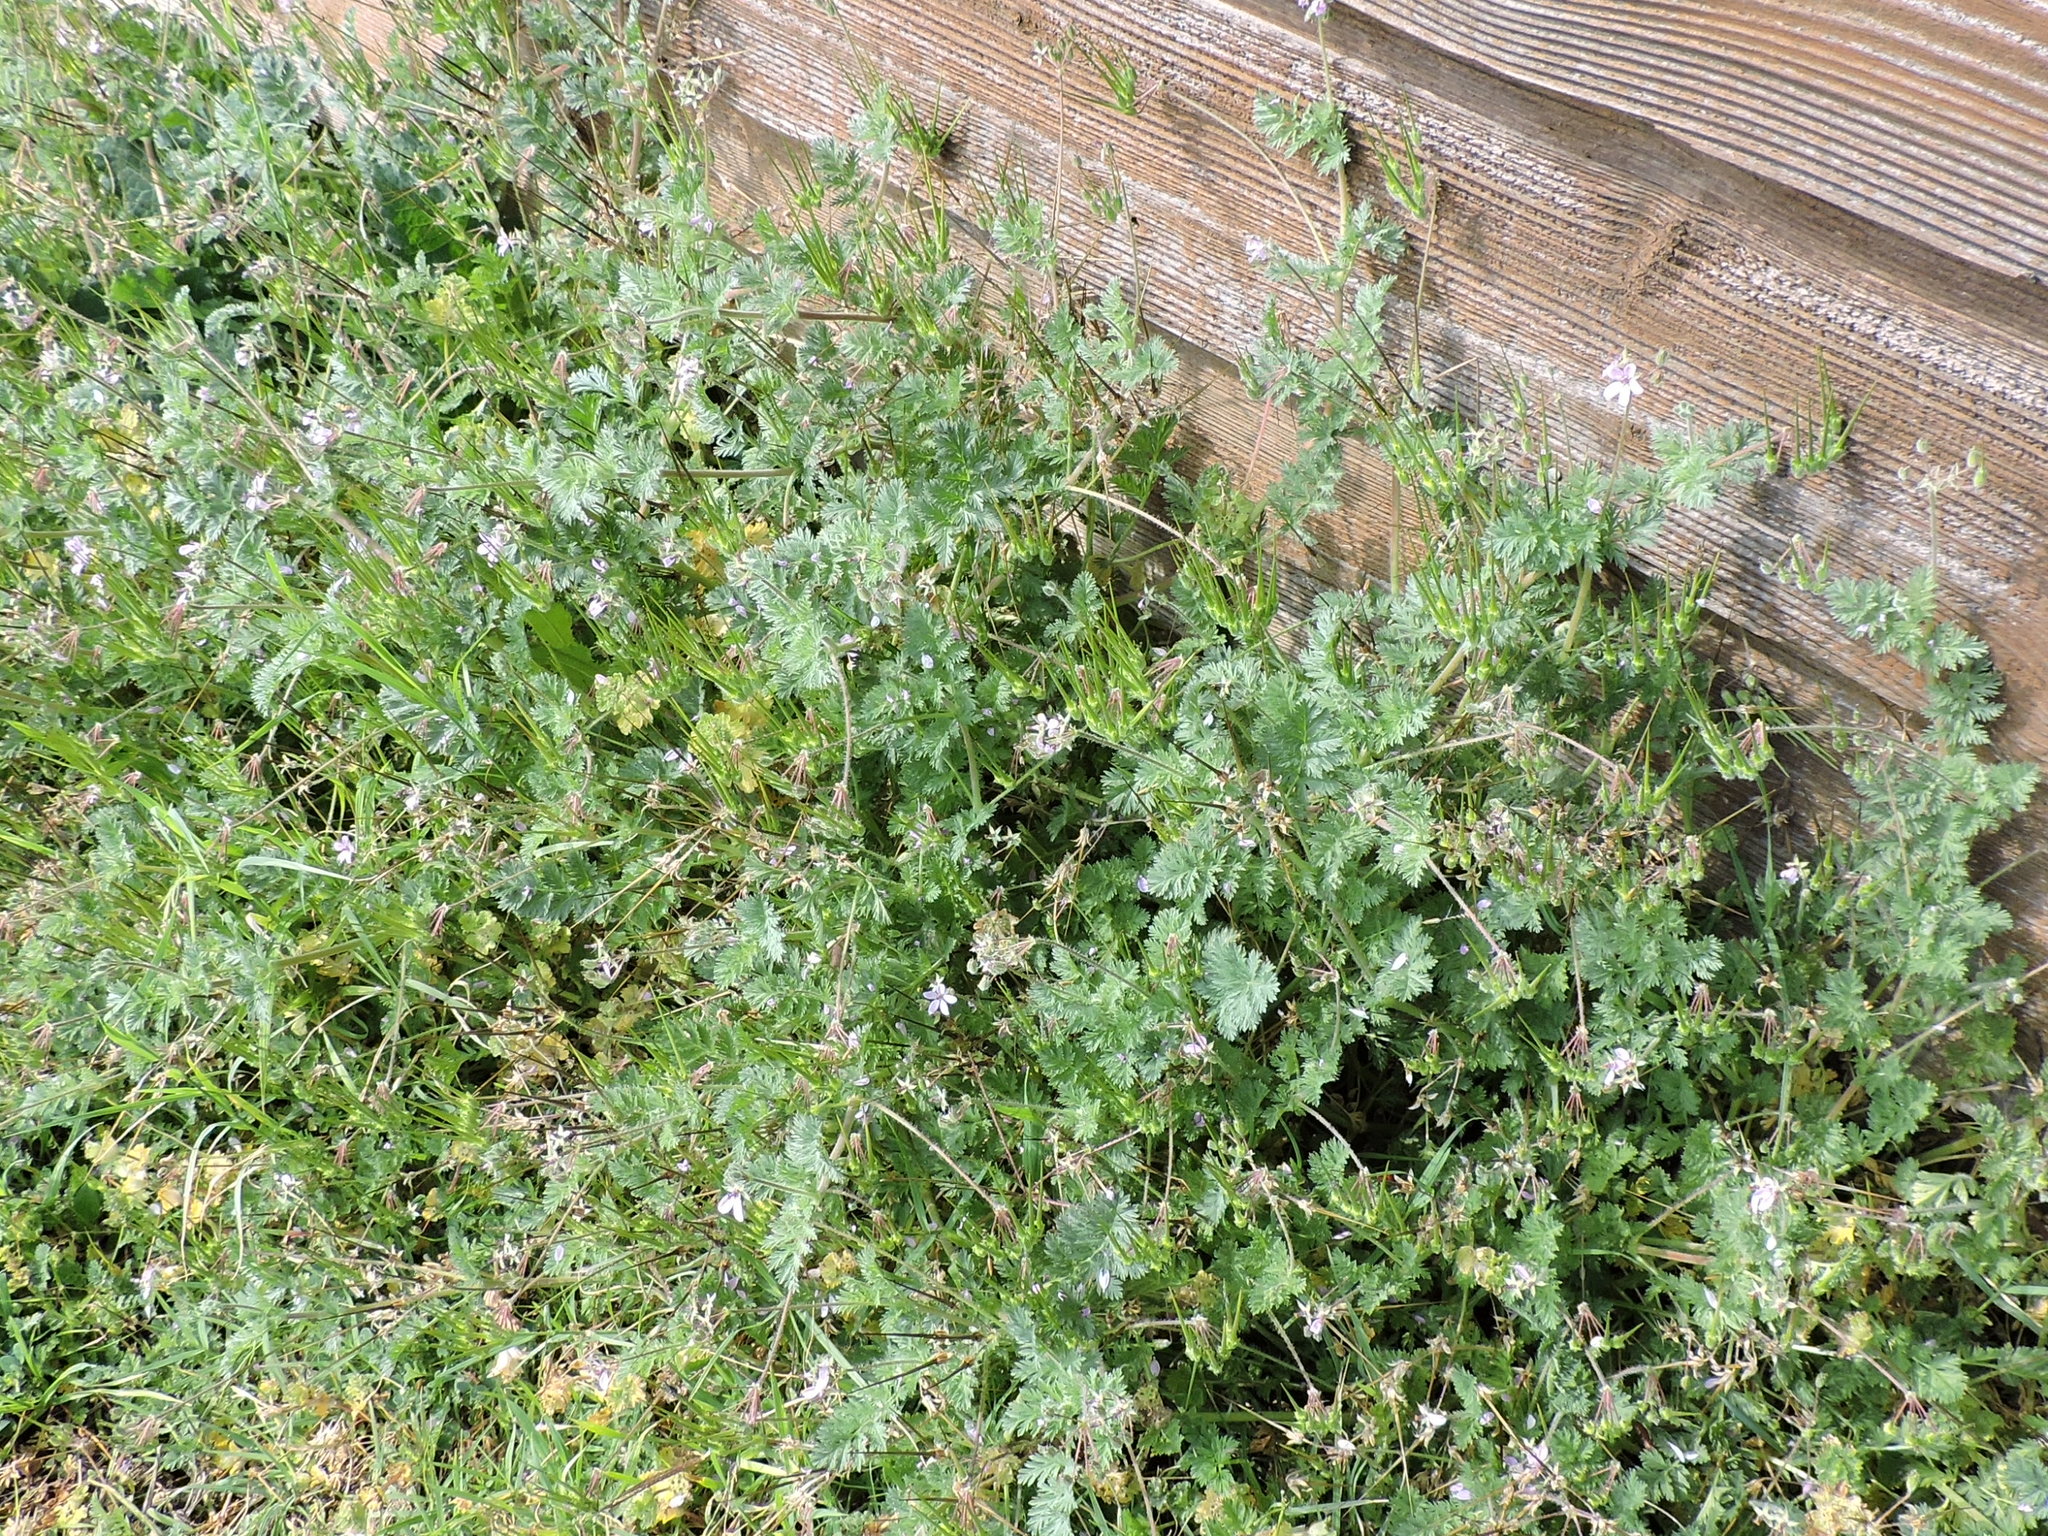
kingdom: Plantae
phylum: Tracheophyta
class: Magnoliopsida
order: Geraniales
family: Geraniaceae
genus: Erodium
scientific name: Erodium cicutarium
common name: Common stork's-bill
